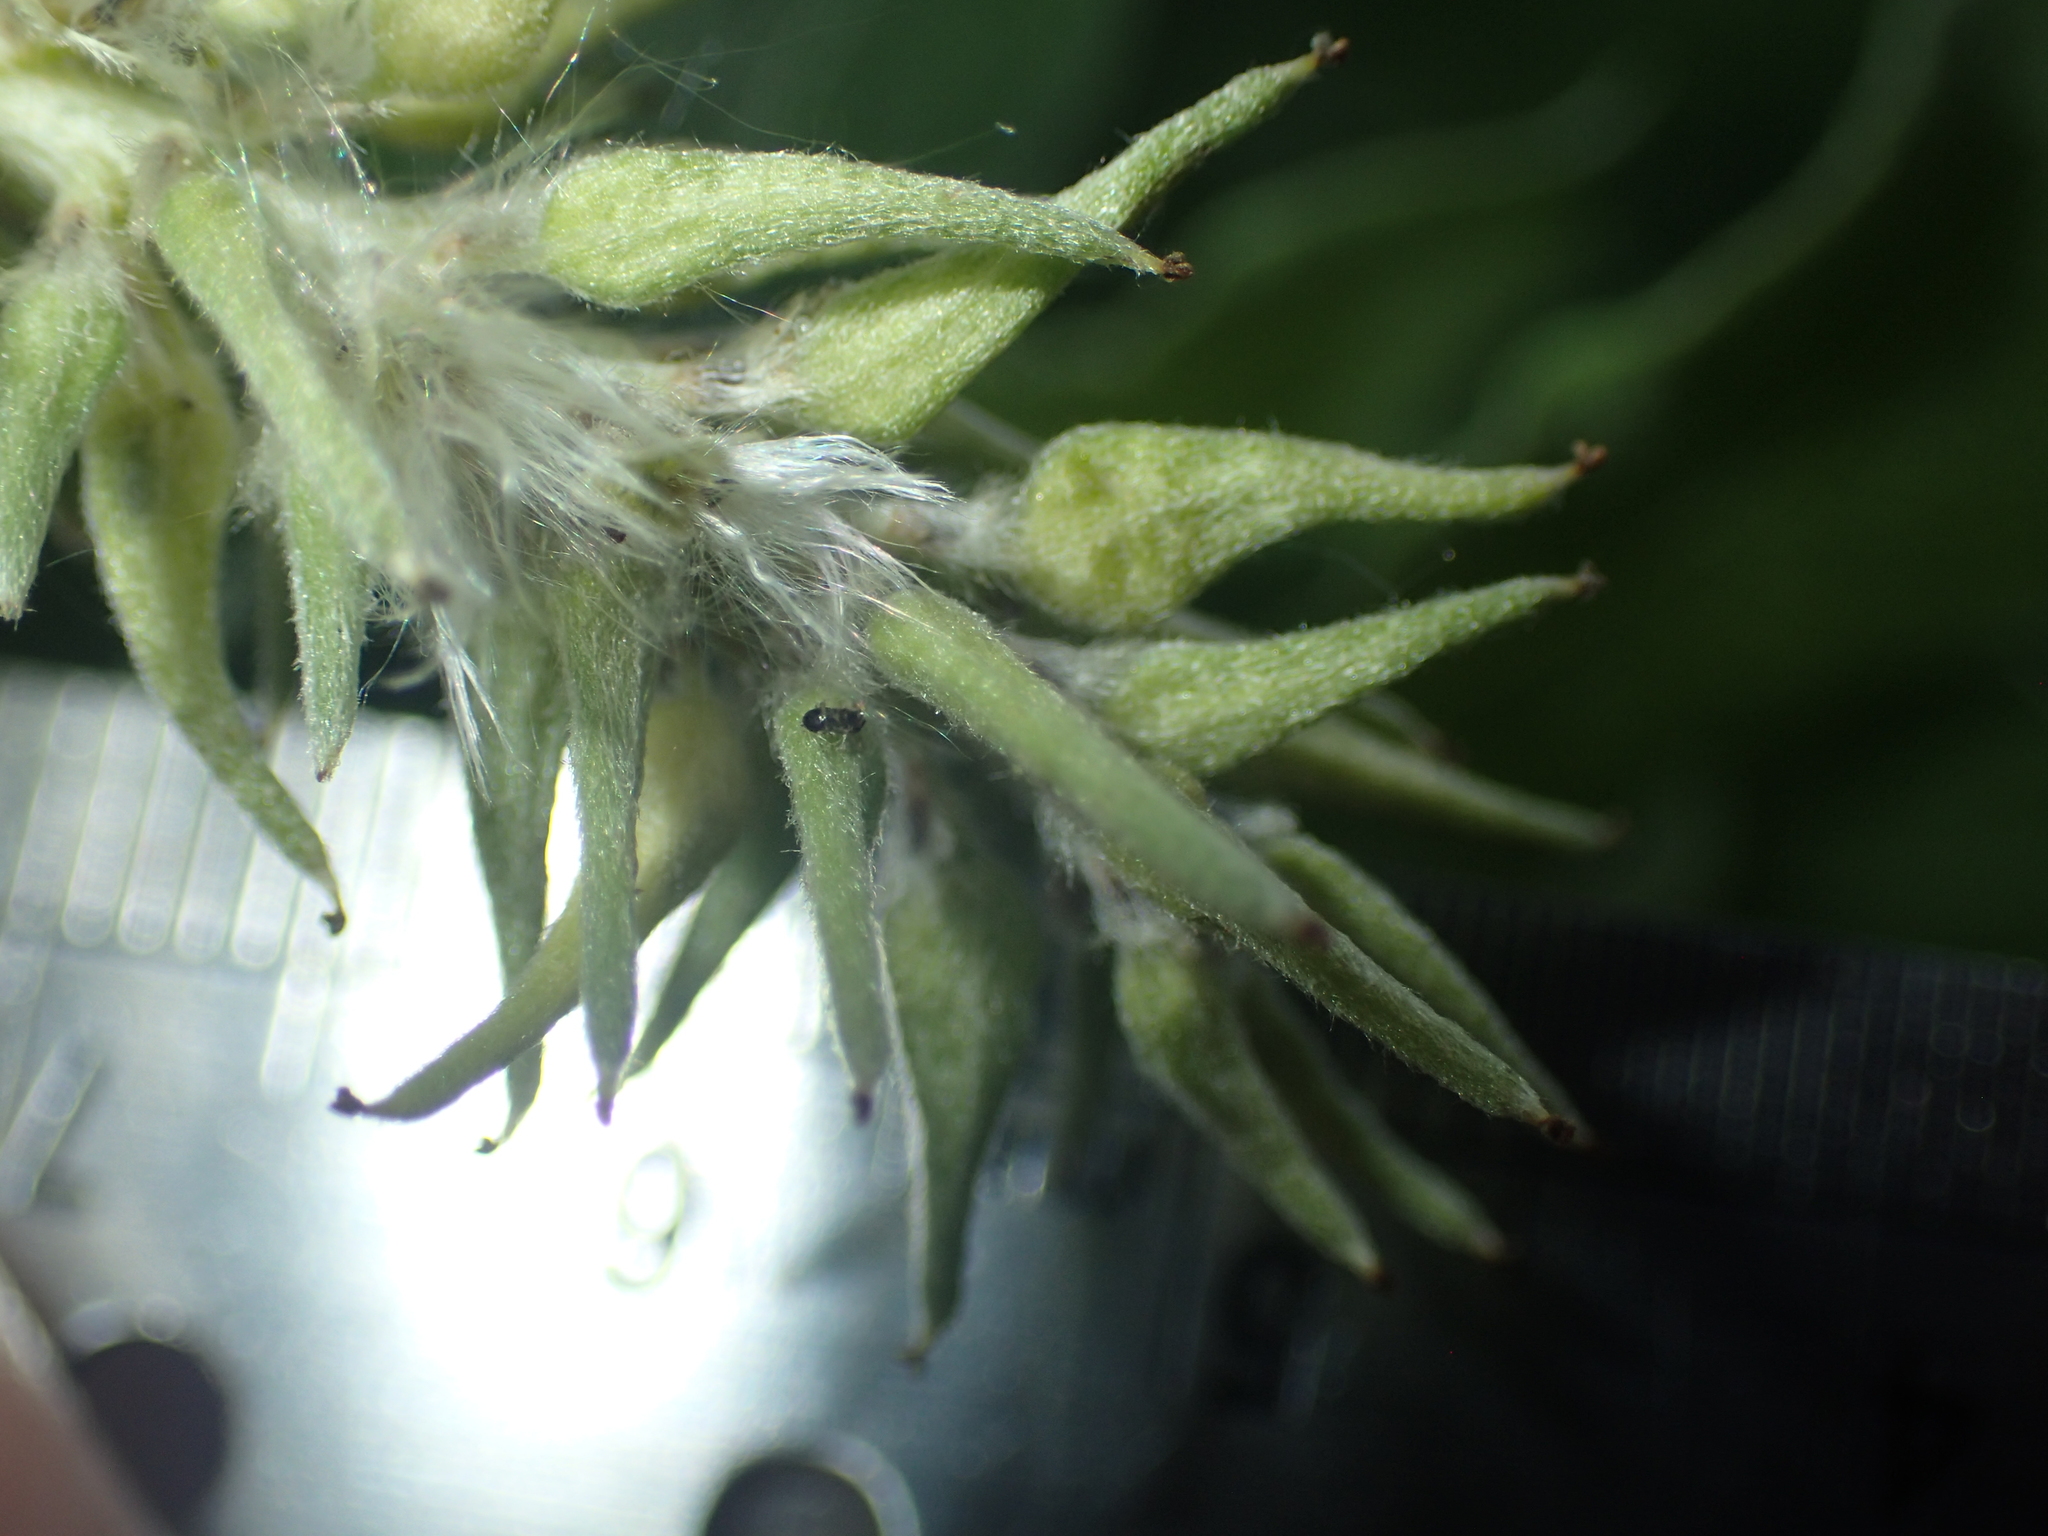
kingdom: Plantae
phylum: Tracheophyta
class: Magnoliopsida
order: Malpighiales
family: Salicaceae
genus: Salix
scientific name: Salix atrocinerea
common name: Rusty willow
